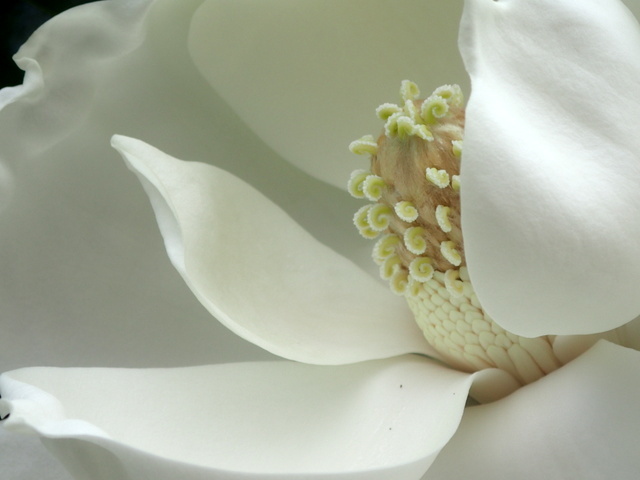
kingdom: Plantae
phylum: Tracheophyta
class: Magnoliopsida
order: Magnoliales
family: Magnoliaceae
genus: Magnolia
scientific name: Magnolia grandiflora
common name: Southern magnolia
